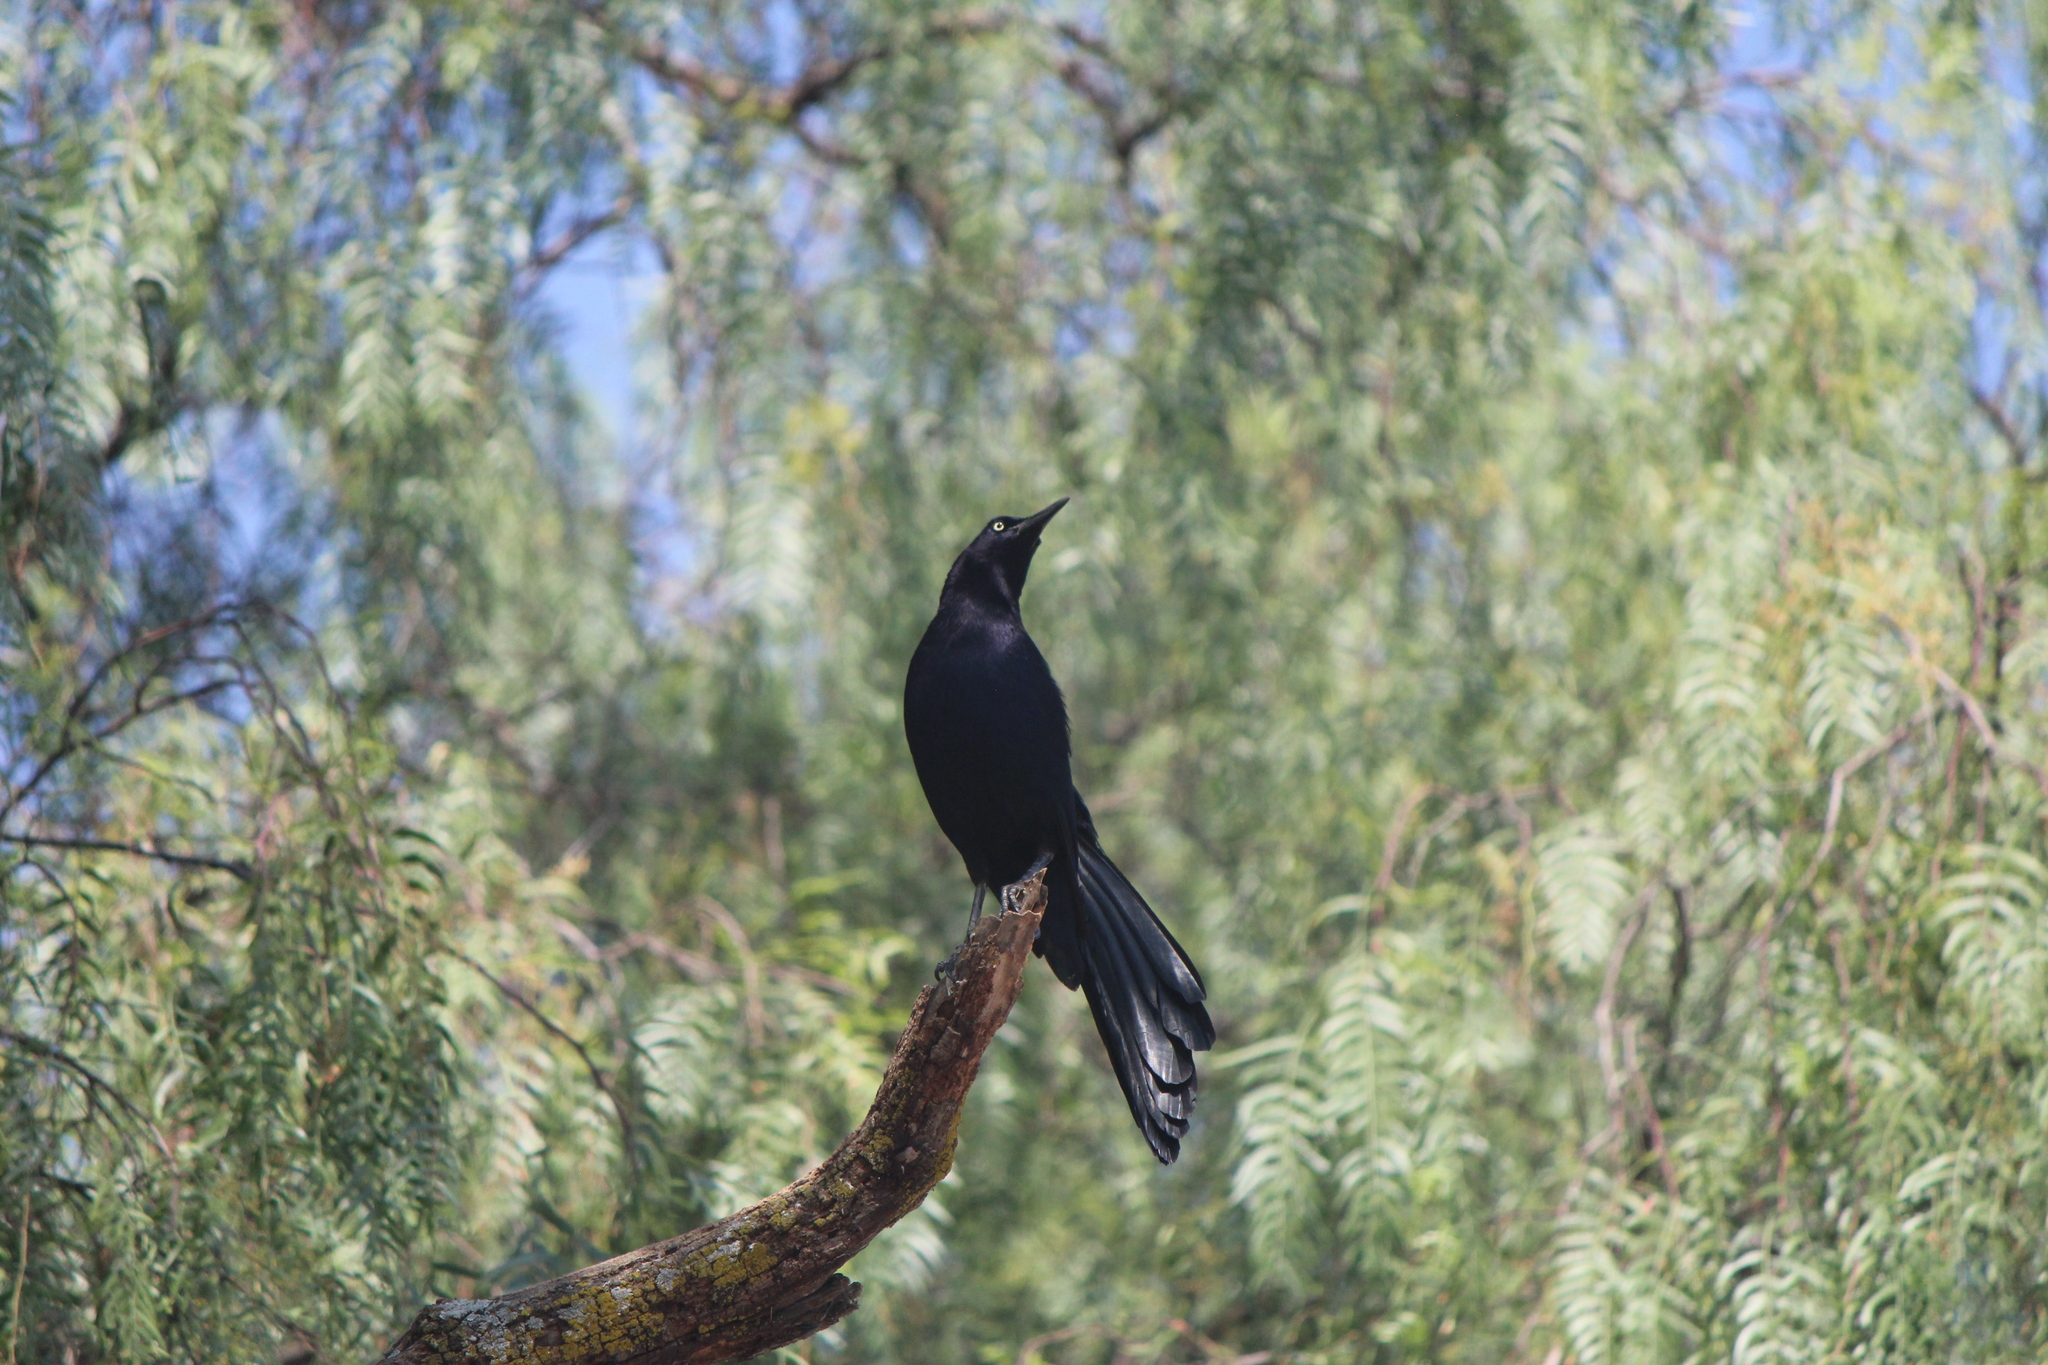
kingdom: Animalia
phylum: Chordata
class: Aves
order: Passeriformes
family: Icteridae
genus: Quiscalus
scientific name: Quiscalus mexicanus
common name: Great-tailed grackle
